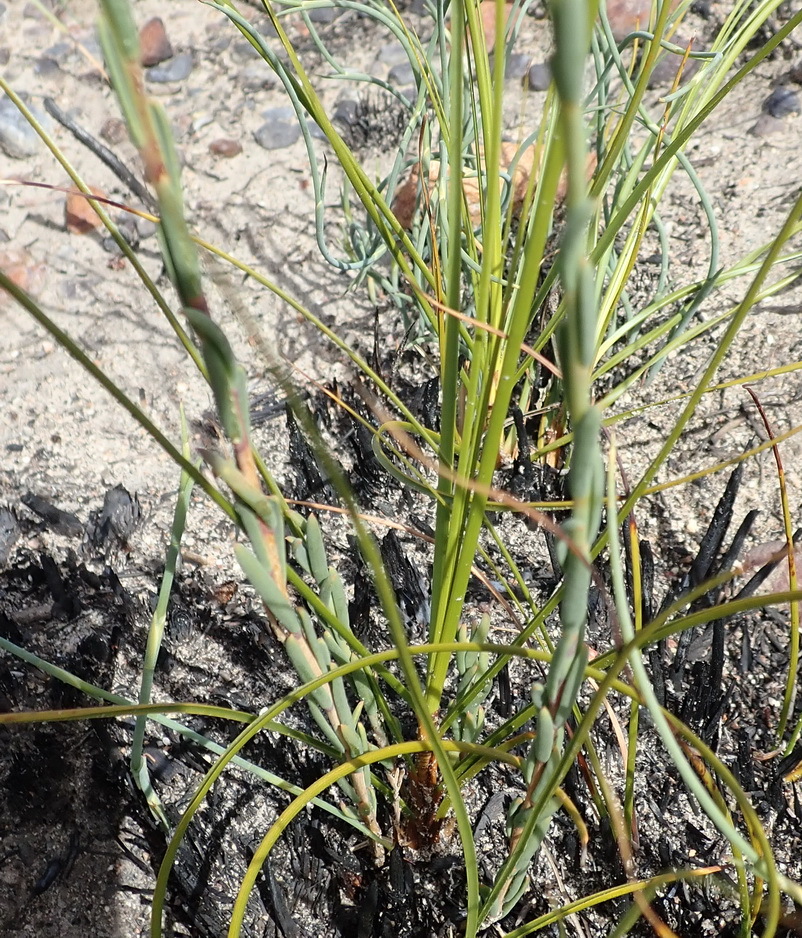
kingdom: Plantae
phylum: Tracheophyta
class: Magnoliopsida
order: Brassicales
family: Brassicaceae
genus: Heliophila
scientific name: Heliophila glauca
